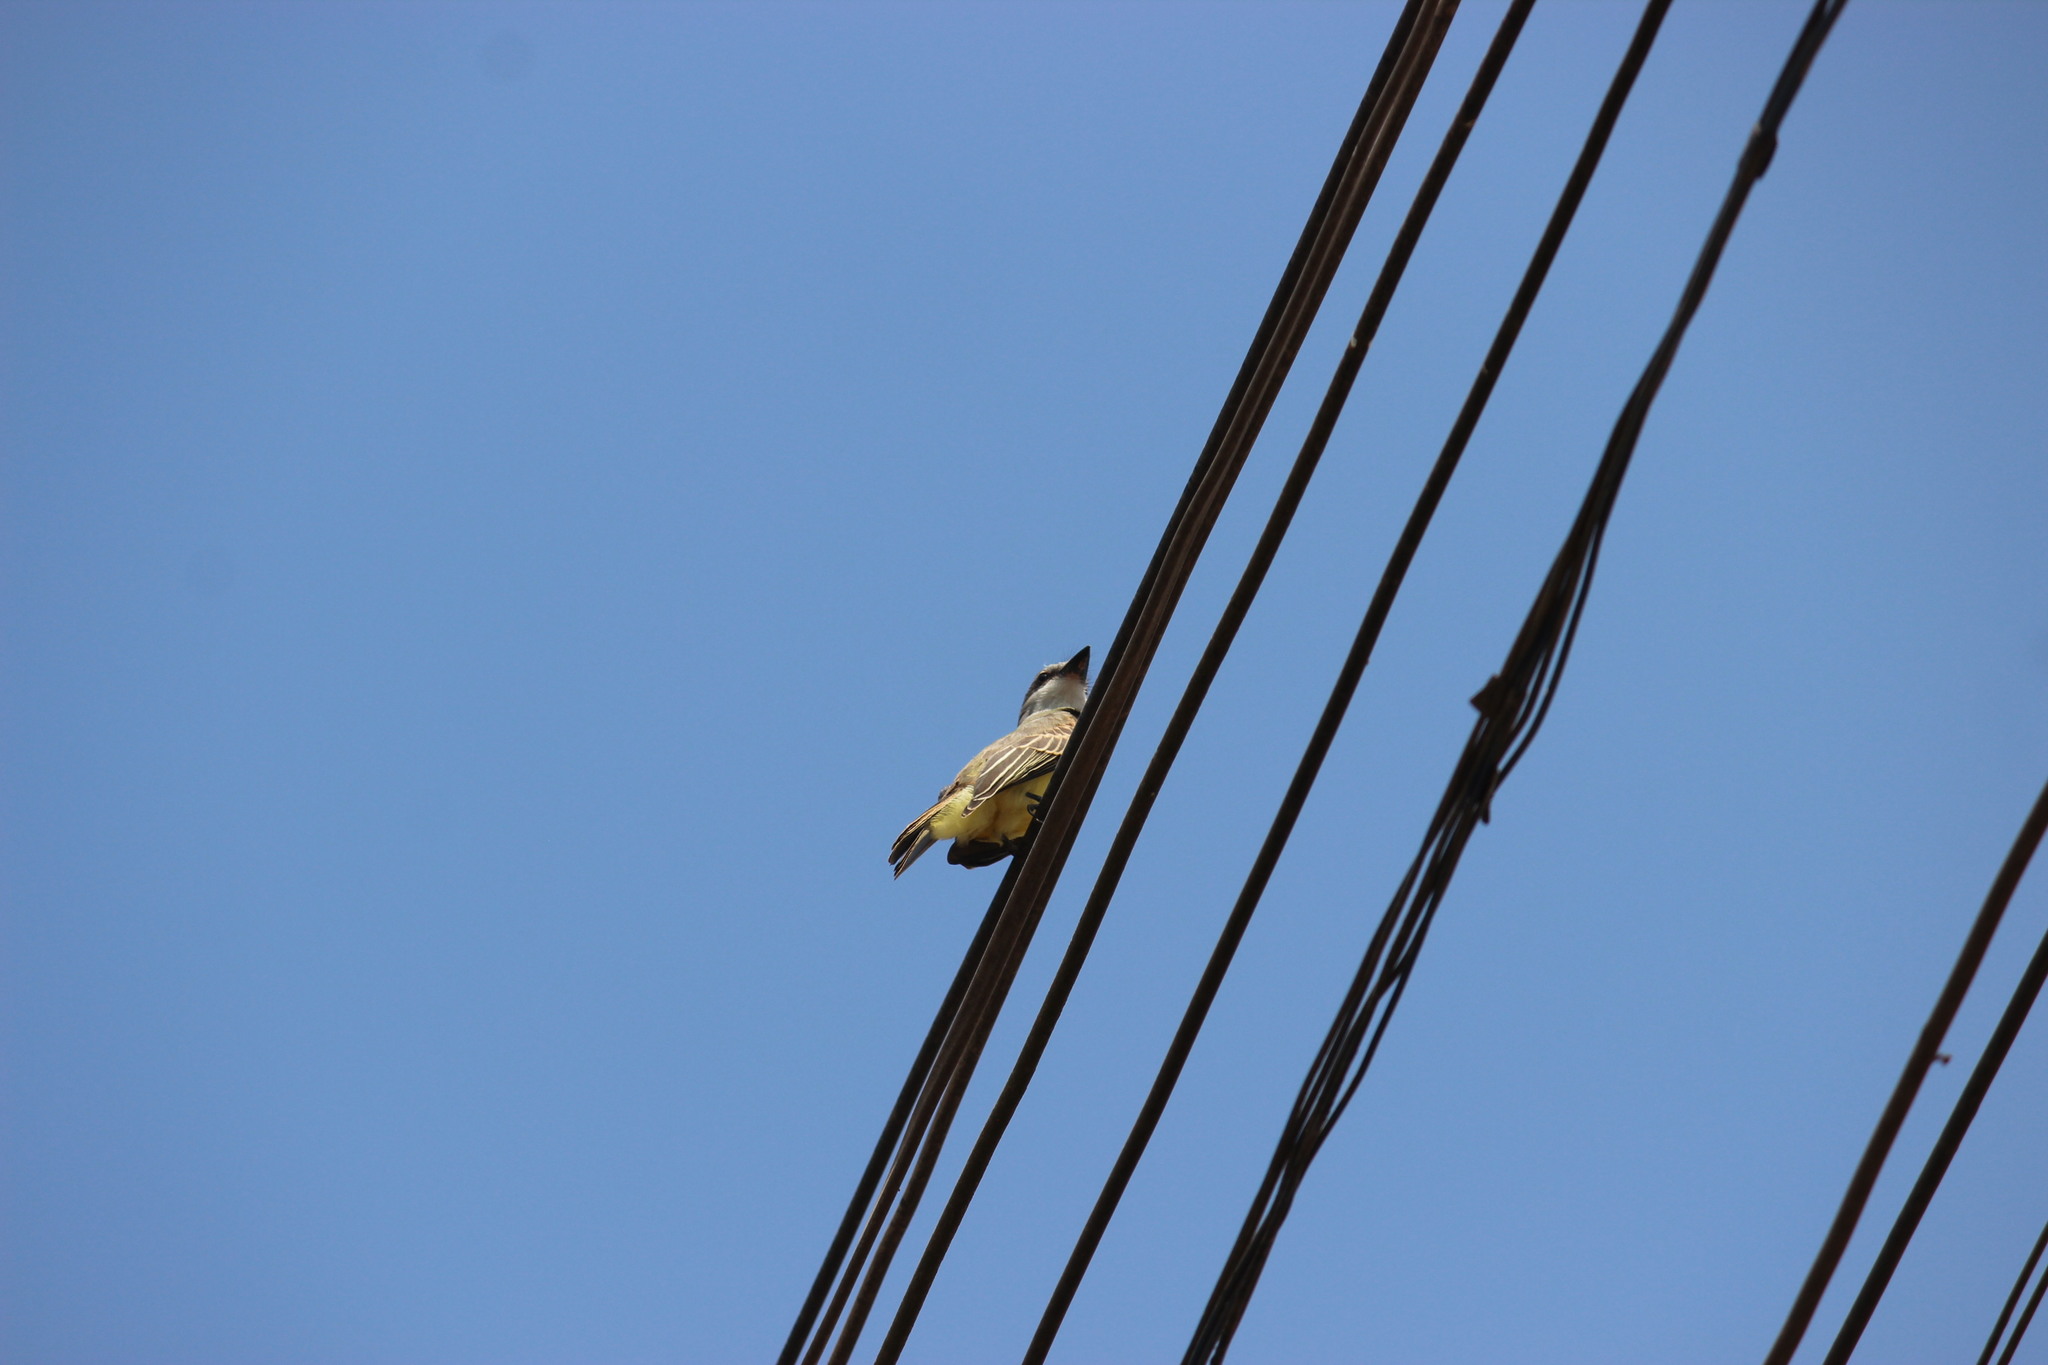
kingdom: Animalia
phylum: Chordata
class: Aves
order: Passeriformes
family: Tyrannidae
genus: Tyrannus
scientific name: Tyrannus melancholicus
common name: Tropical kingbird
